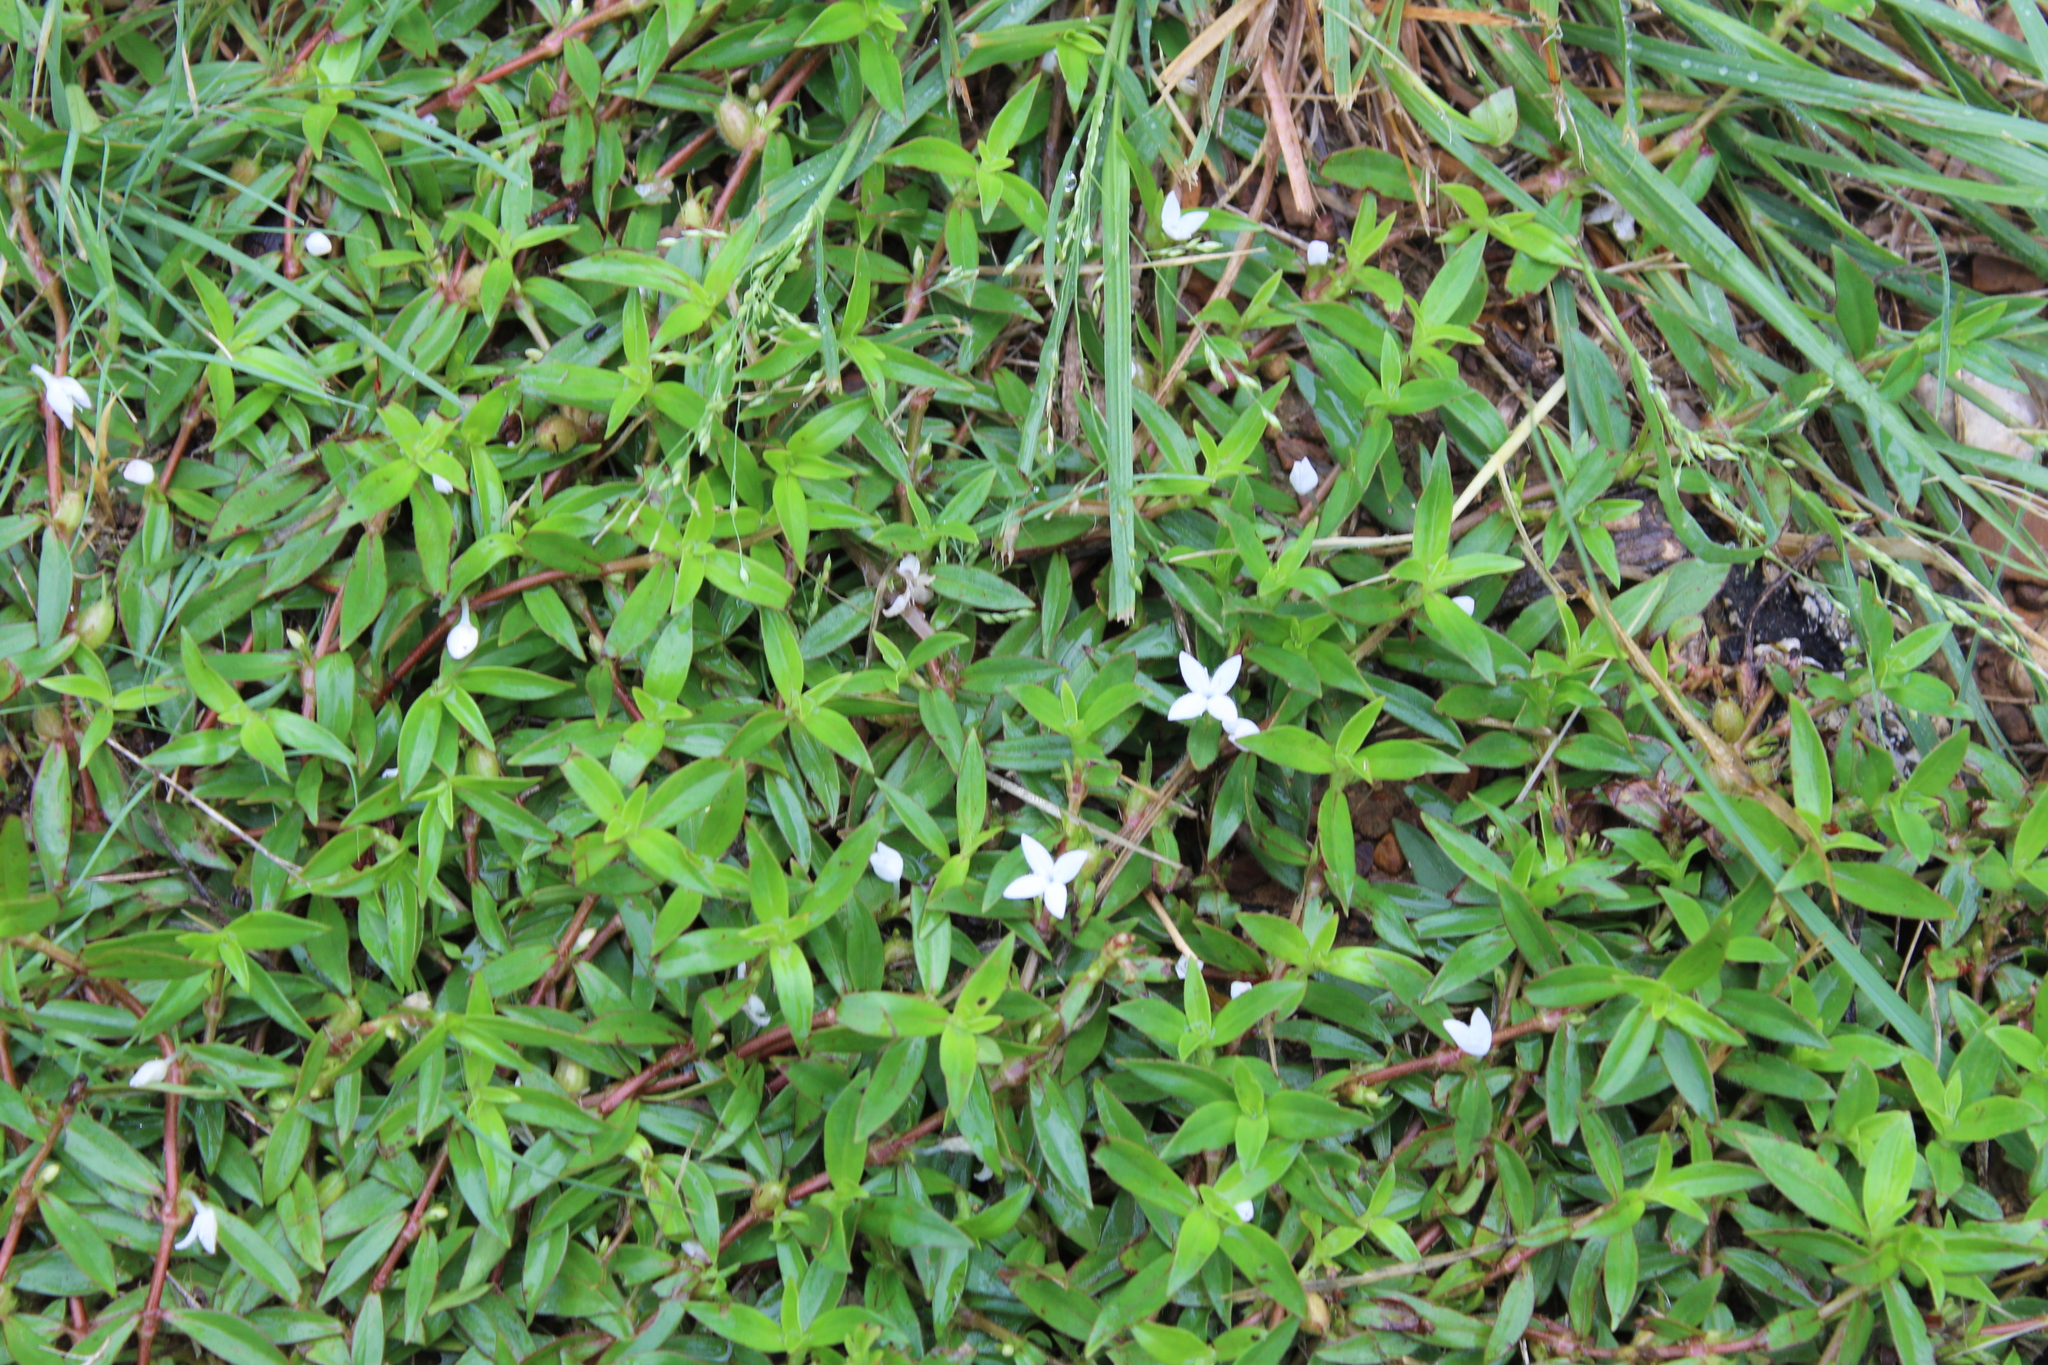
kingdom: Plantae
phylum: Tracheophyta
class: Magnoliopsida
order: Gentianales
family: Rubiaceae
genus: Diodia
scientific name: Diodia virginiana
